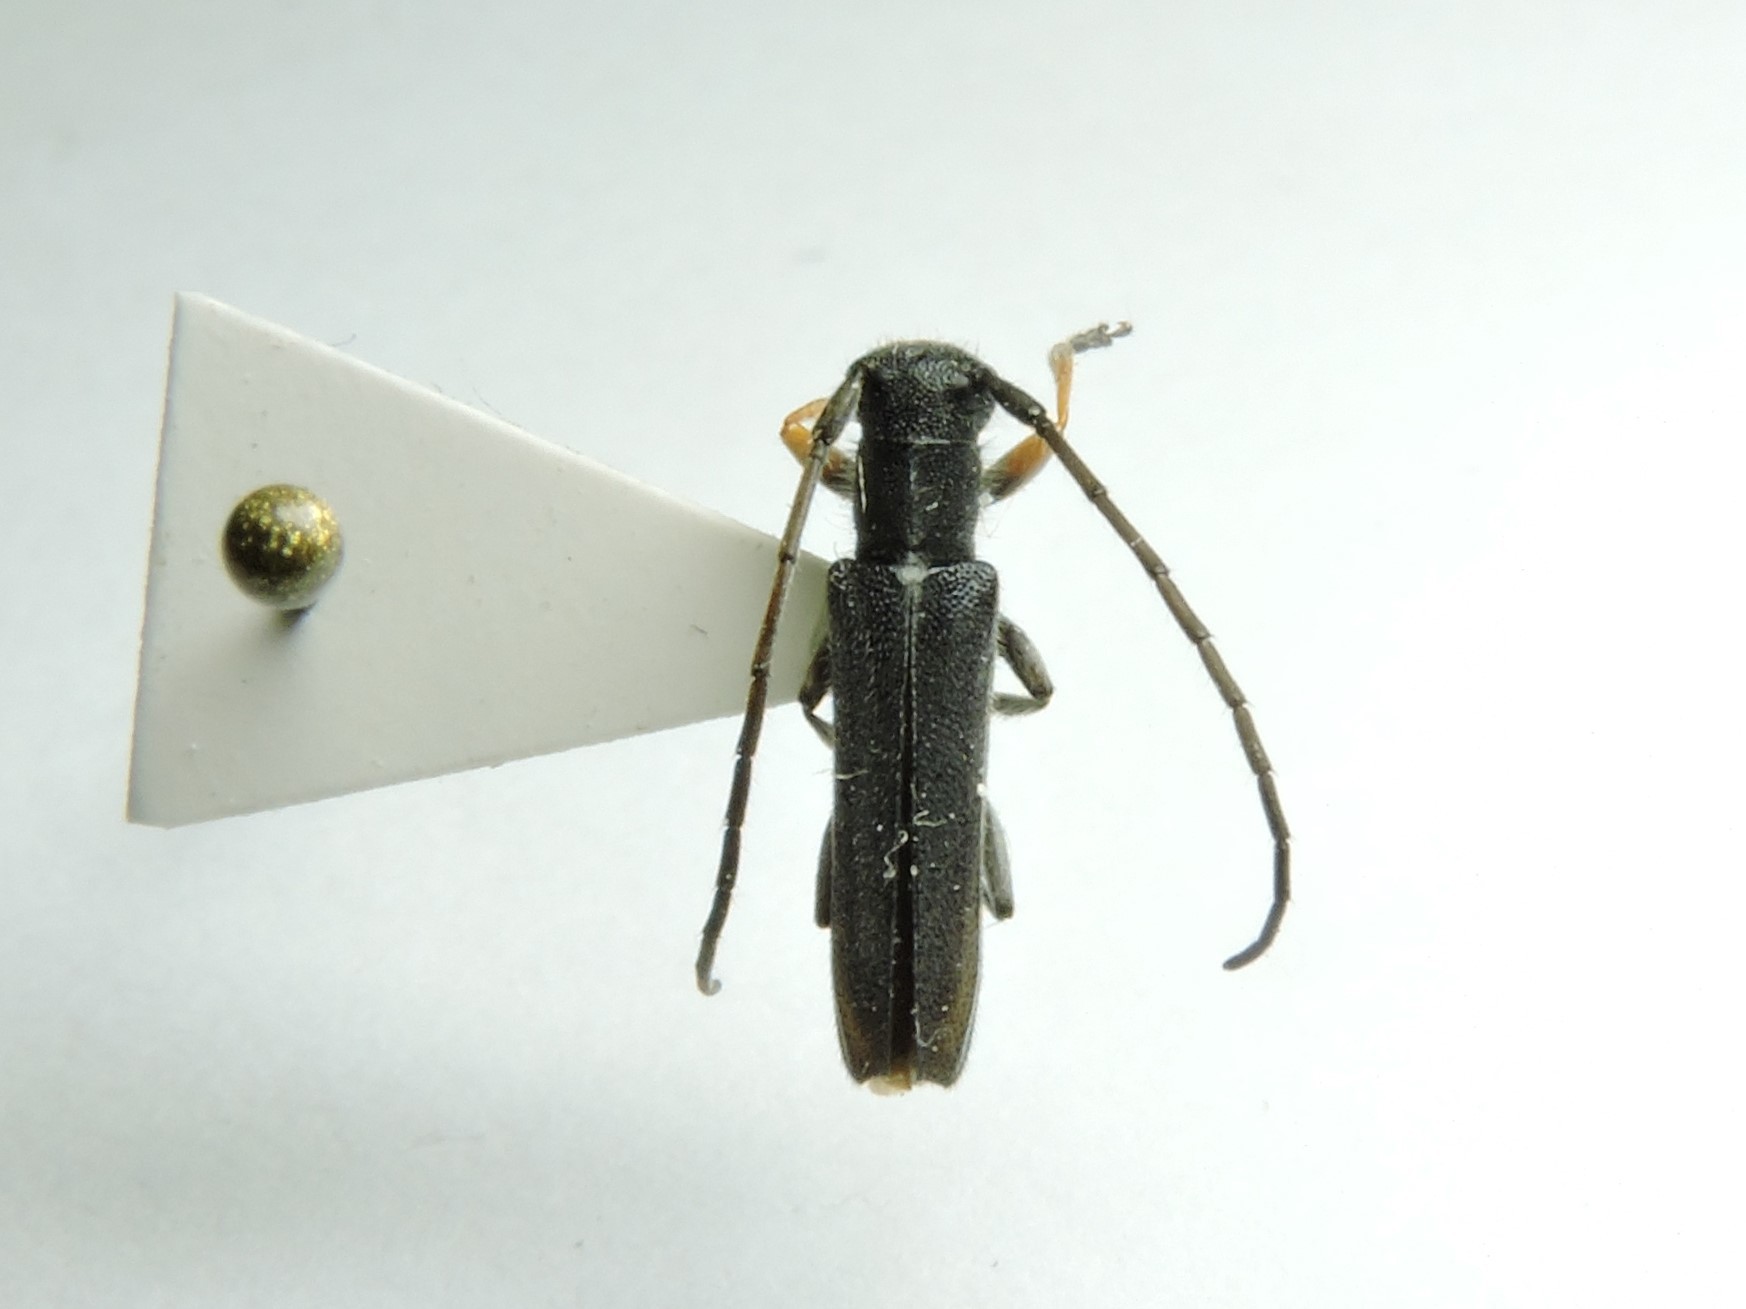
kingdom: Animalia
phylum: Arthropoda
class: Insecta
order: Coleoptera
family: Cerambycidae
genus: Phytoecia
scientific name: Phytoecia cylindrica
